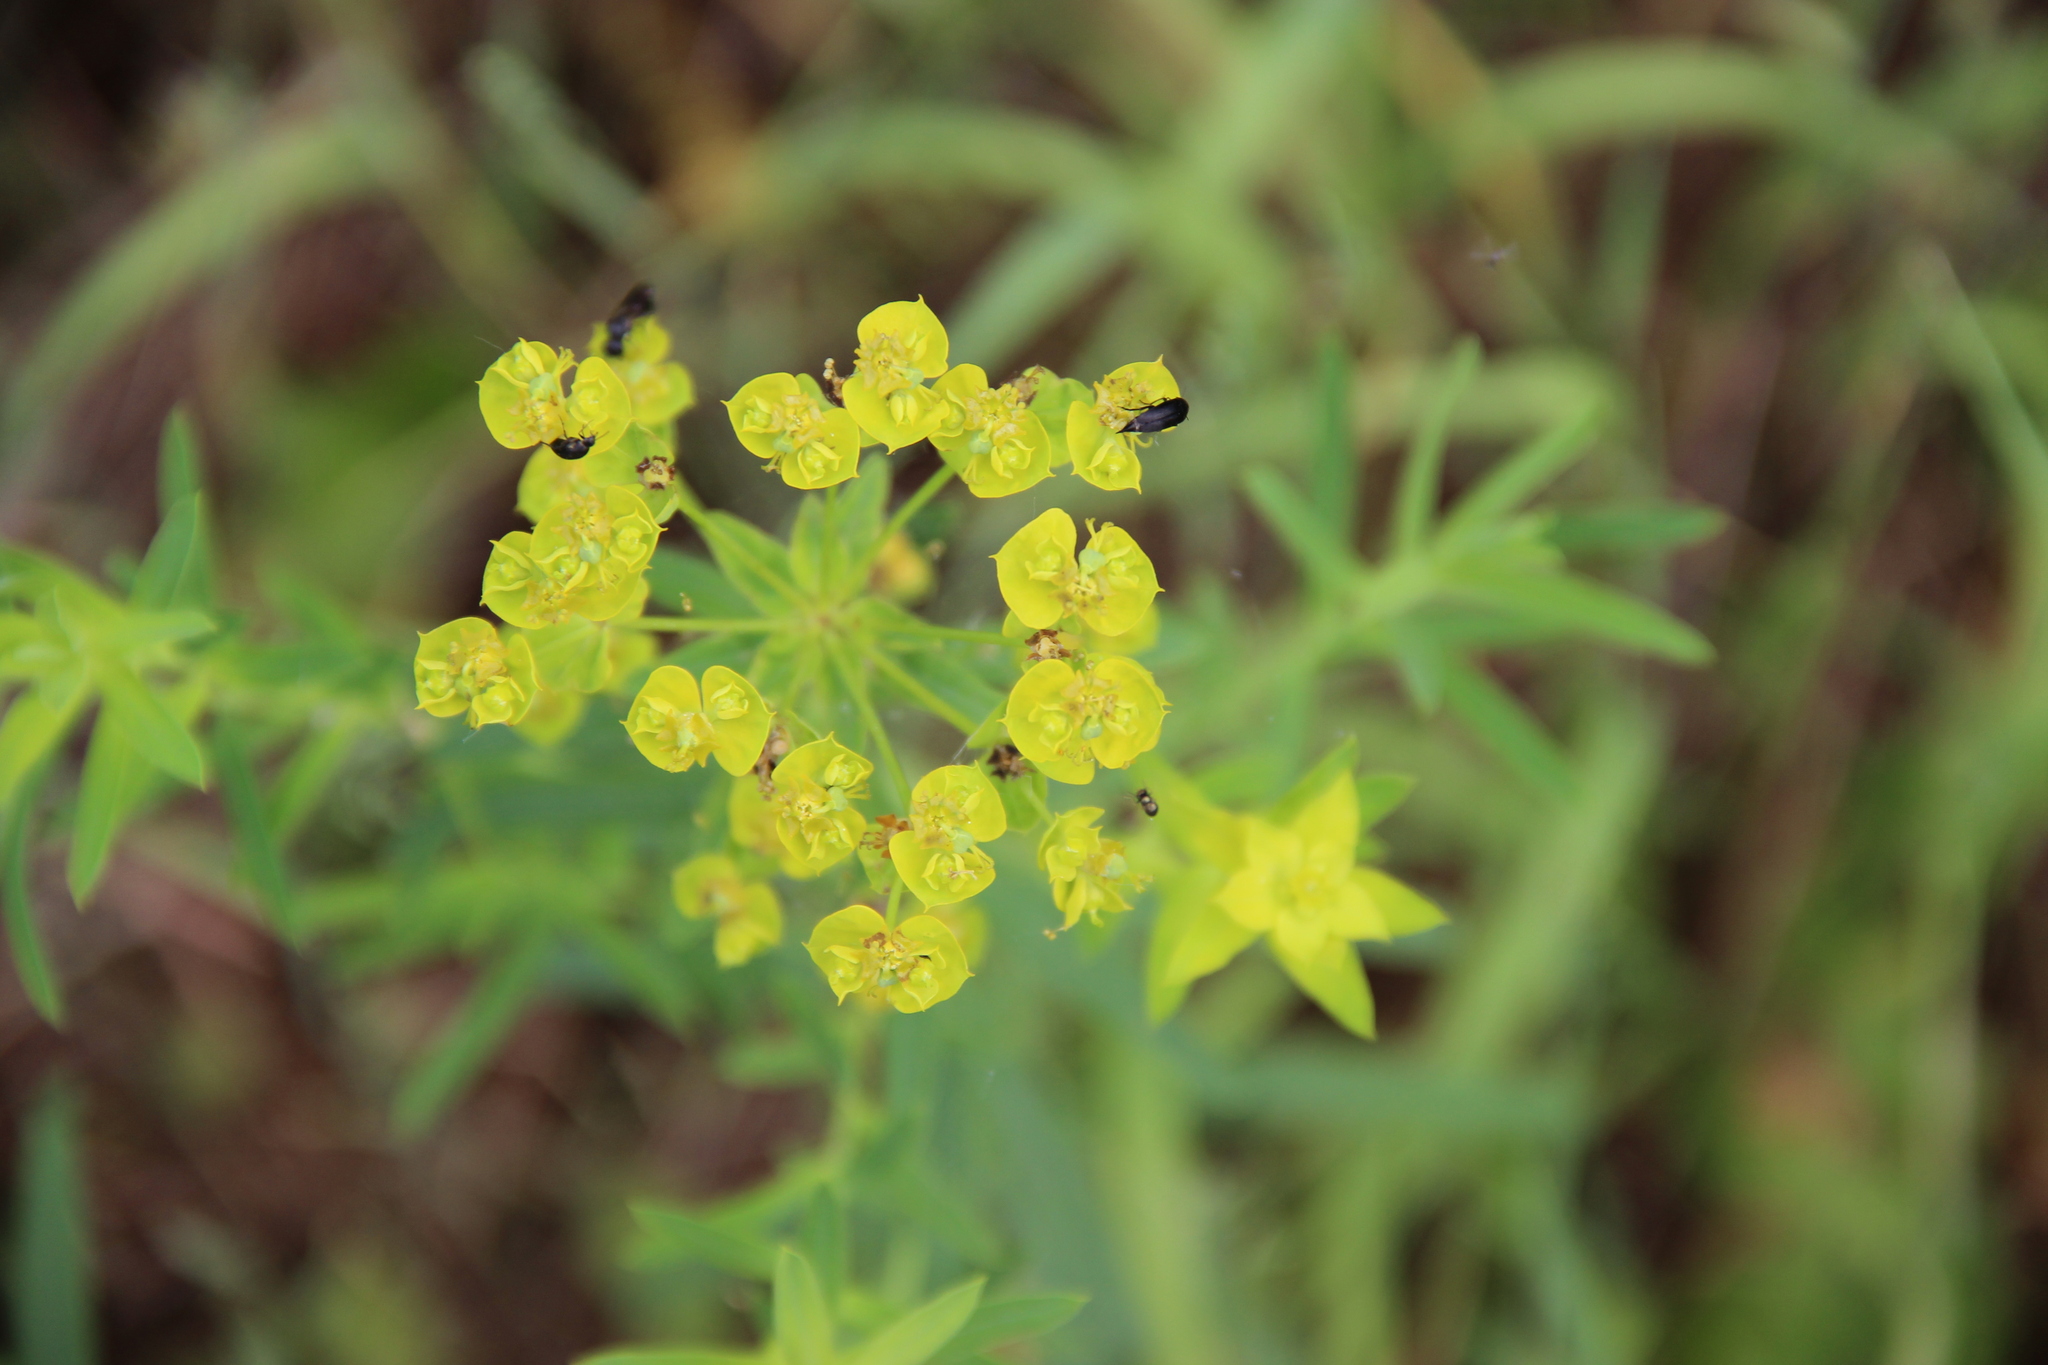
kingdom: Plantae
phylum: Tracheophyta
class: Magnoliopsida
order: Malpighiales
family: Euphorbiaceae
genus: Euphorbia
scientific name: Euphorbia virgata
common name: Leafy spurge
